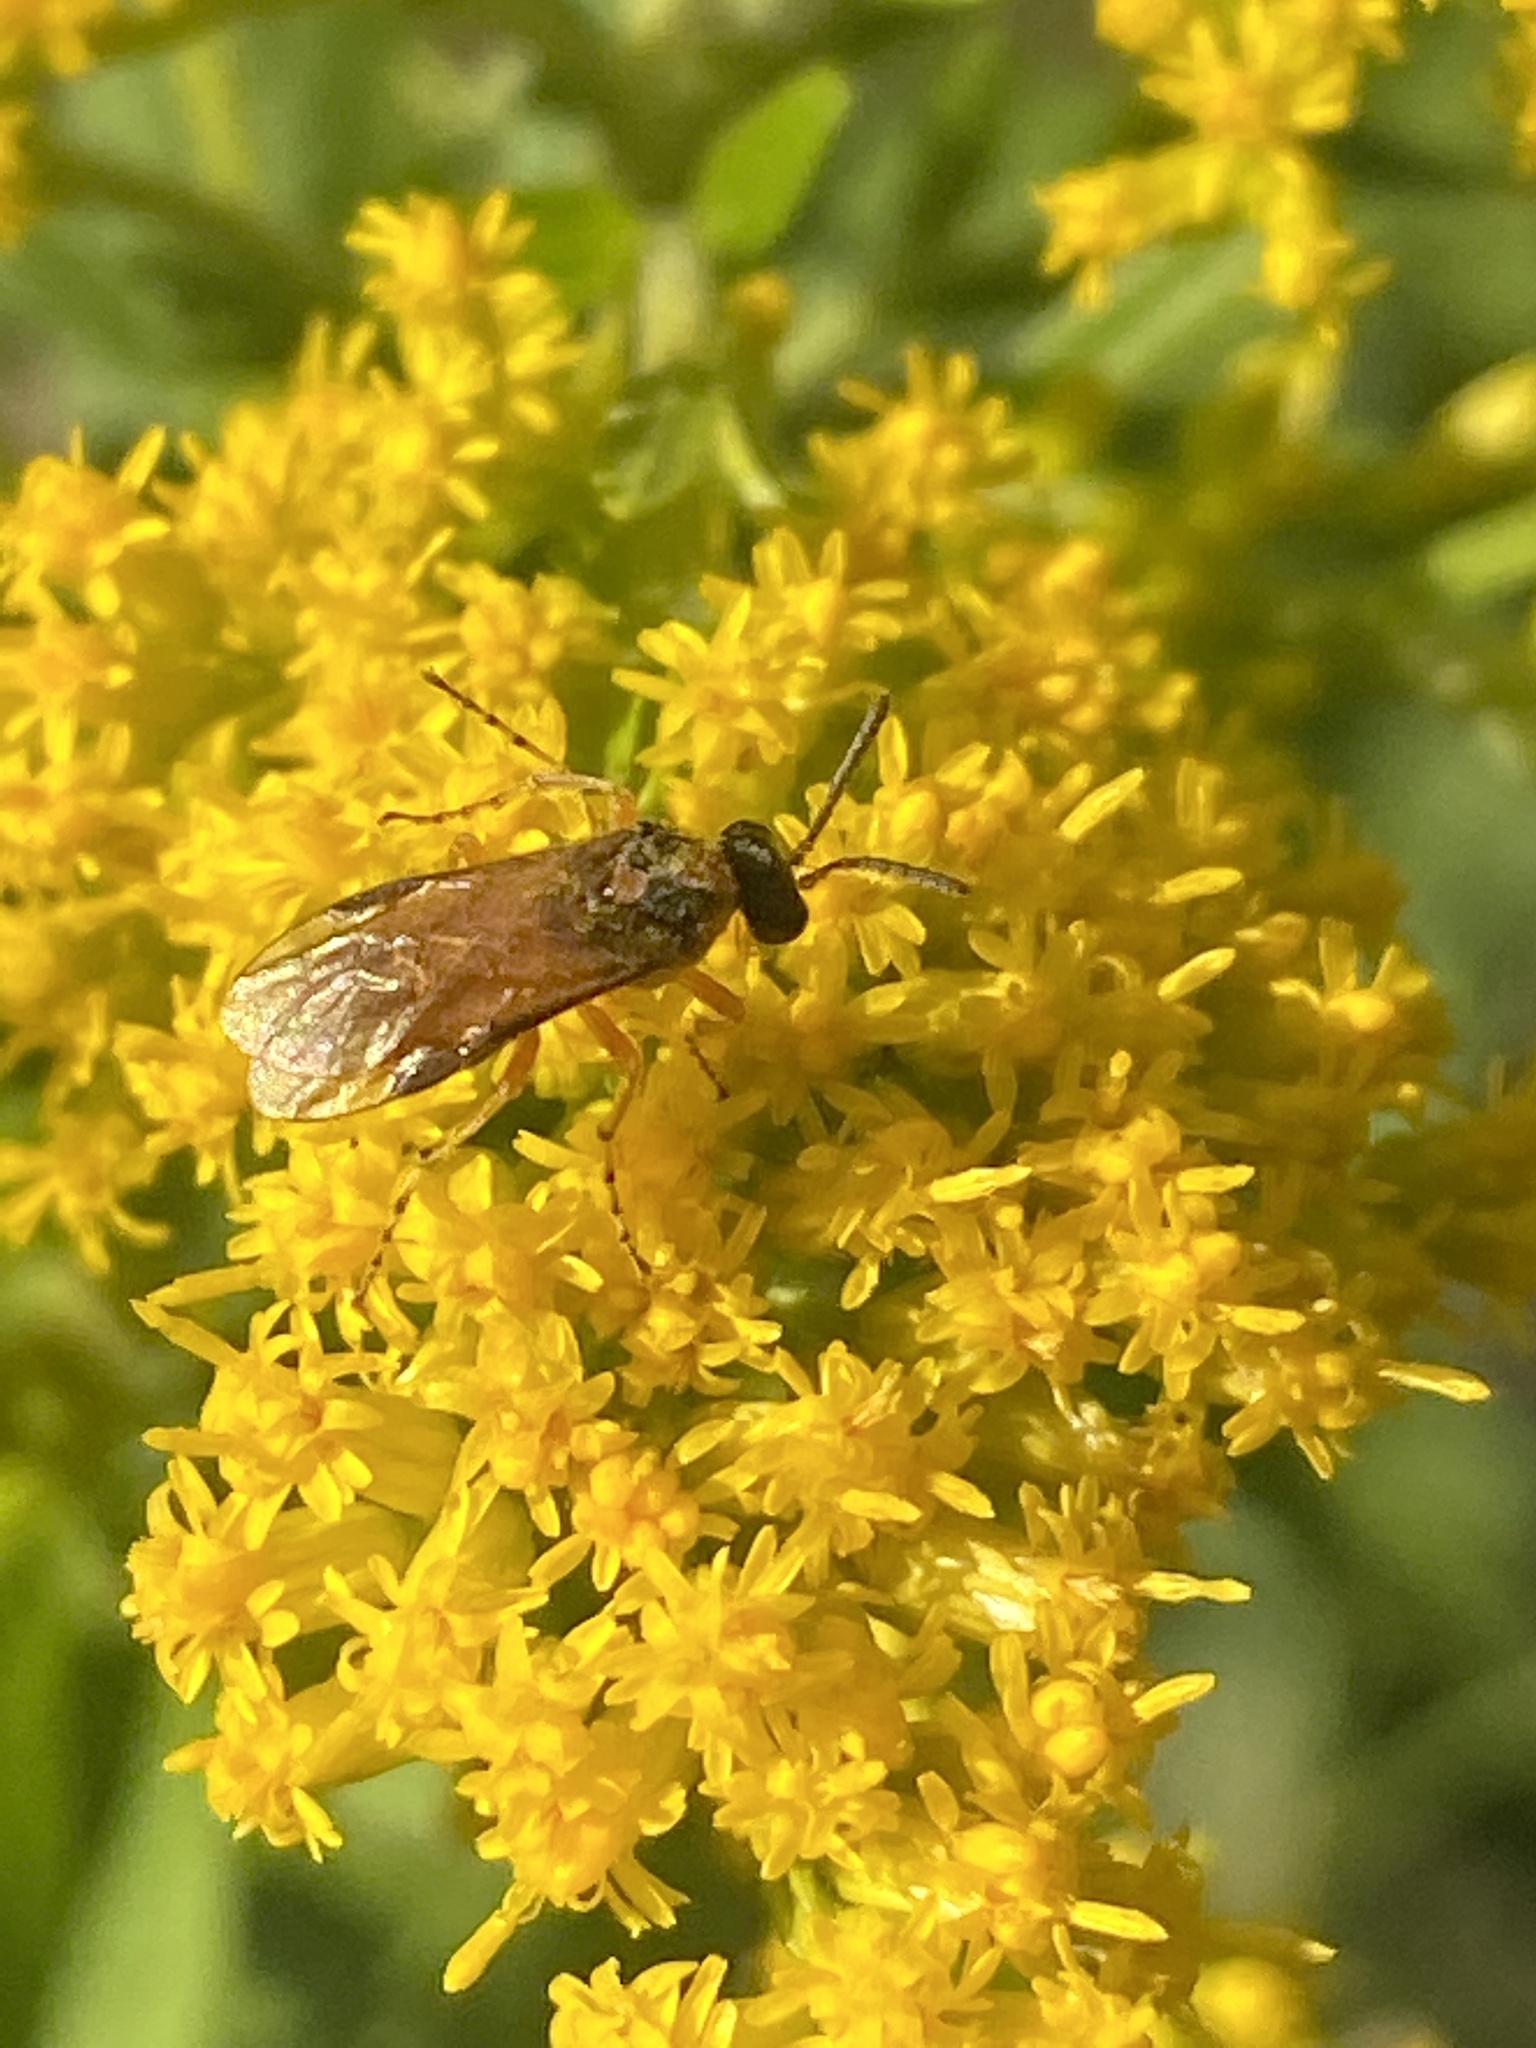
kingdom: Animalia
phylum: Arthropoda
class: Insecta
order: Hymenoptera
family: Tenthredinidae
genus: Athalia
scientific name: Athalia rosae
